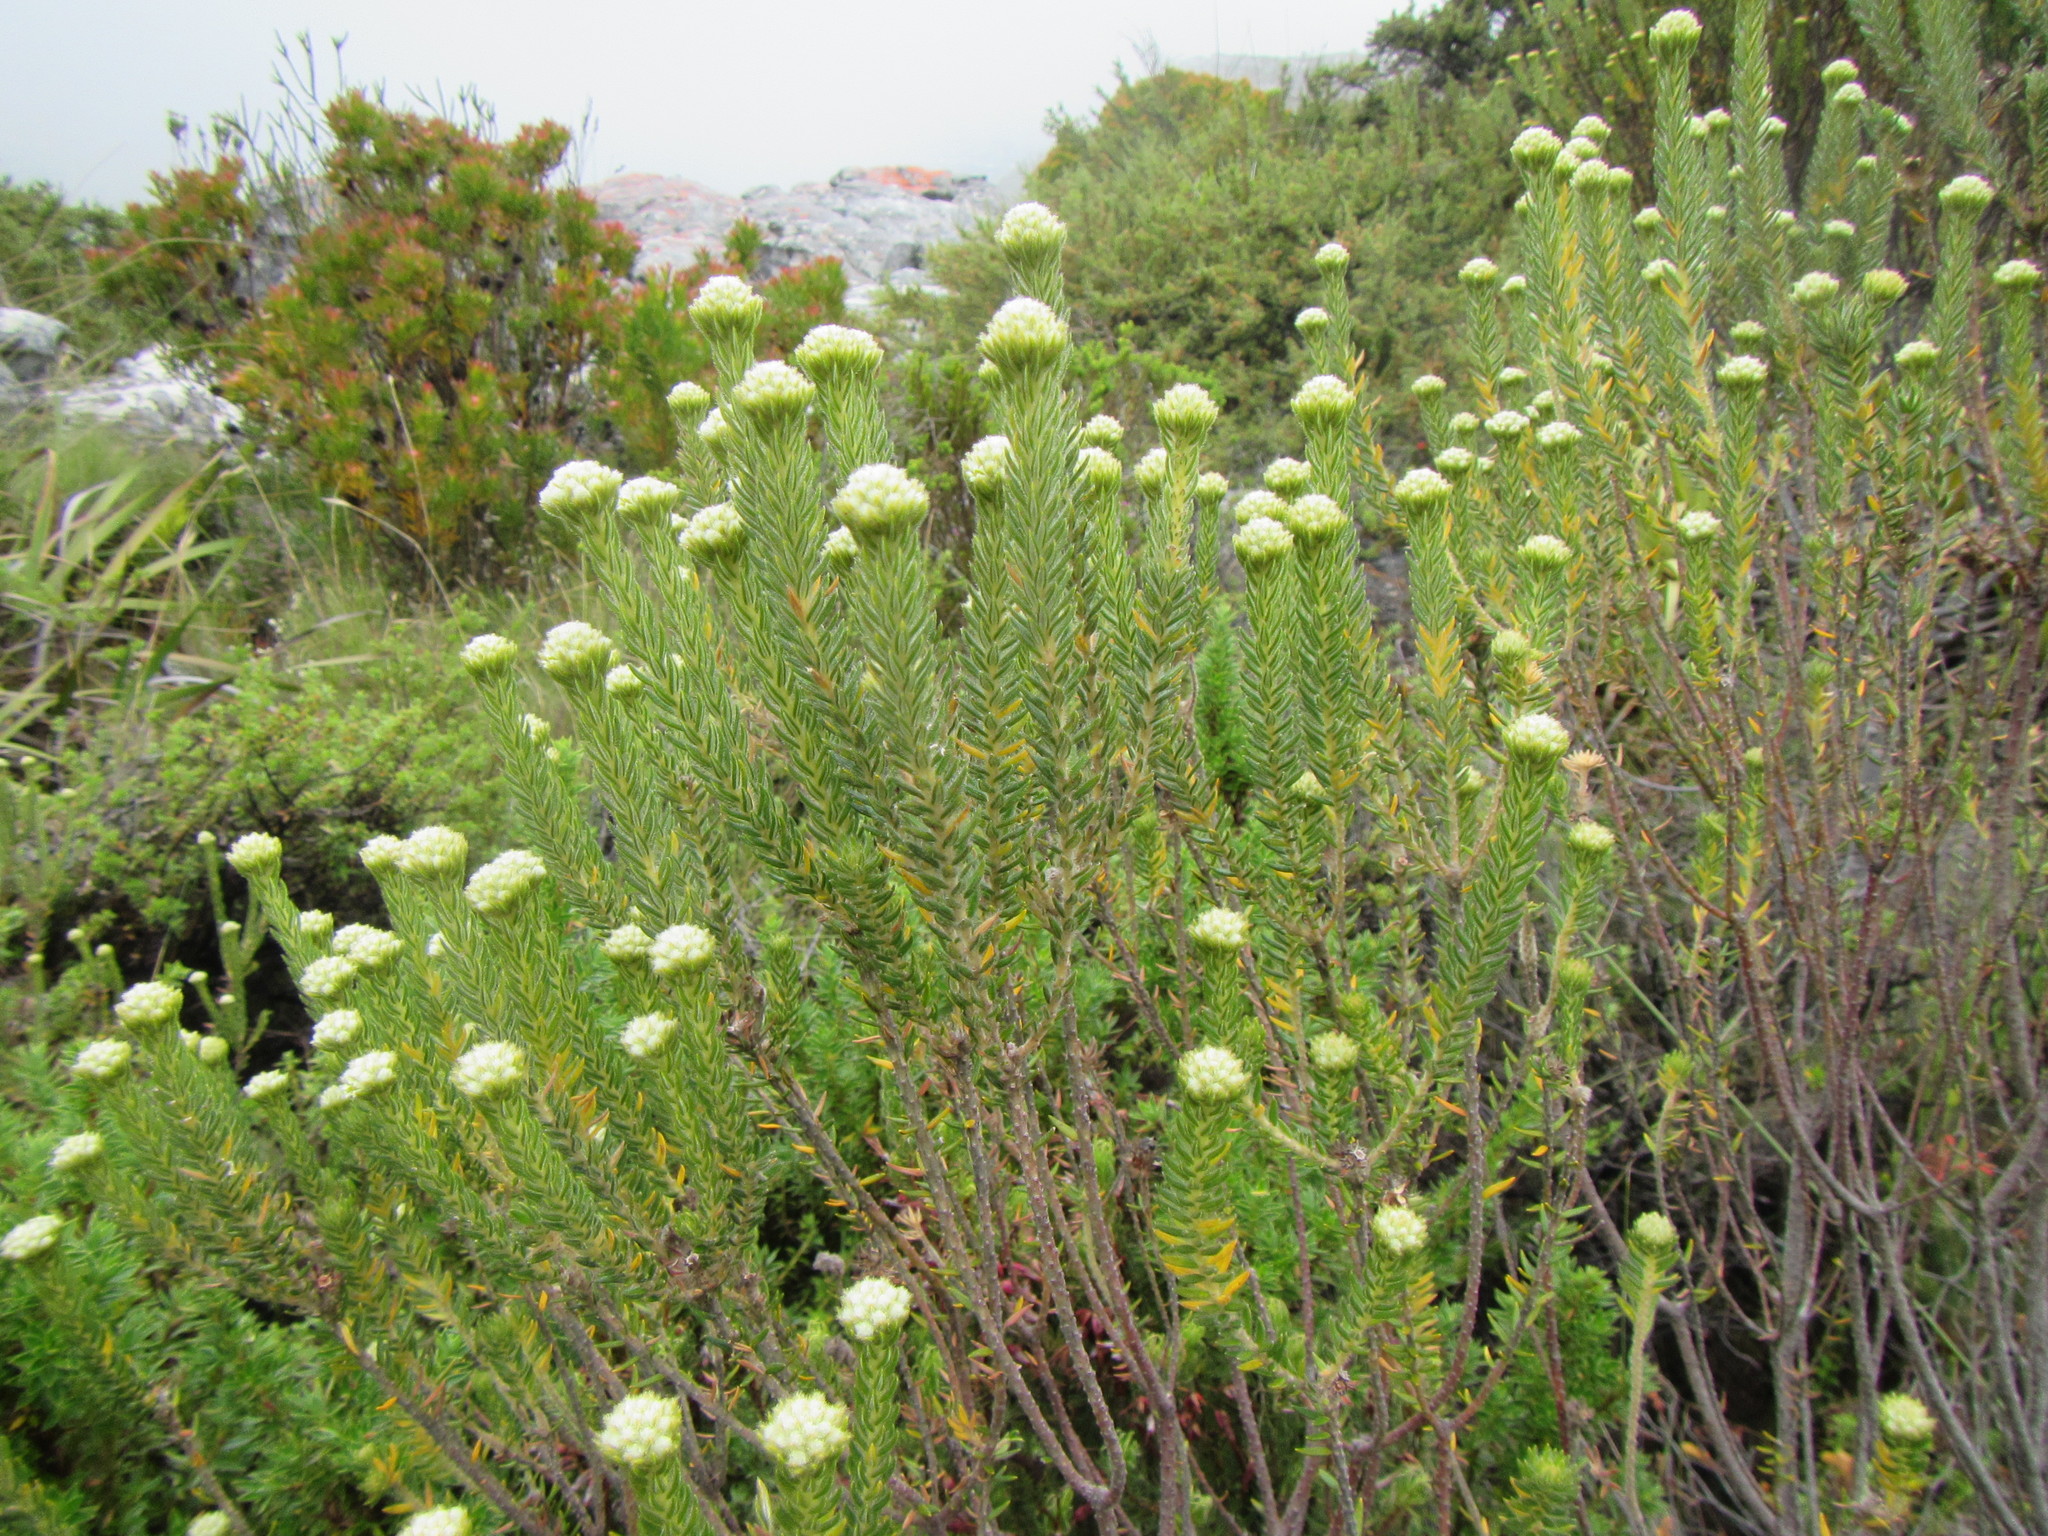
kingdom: Plantae
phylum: Tracheophyta
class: Magnoliopsida
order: Rosales
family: Rhamnaceae
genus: Phylica
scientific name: Phylica strigosa
